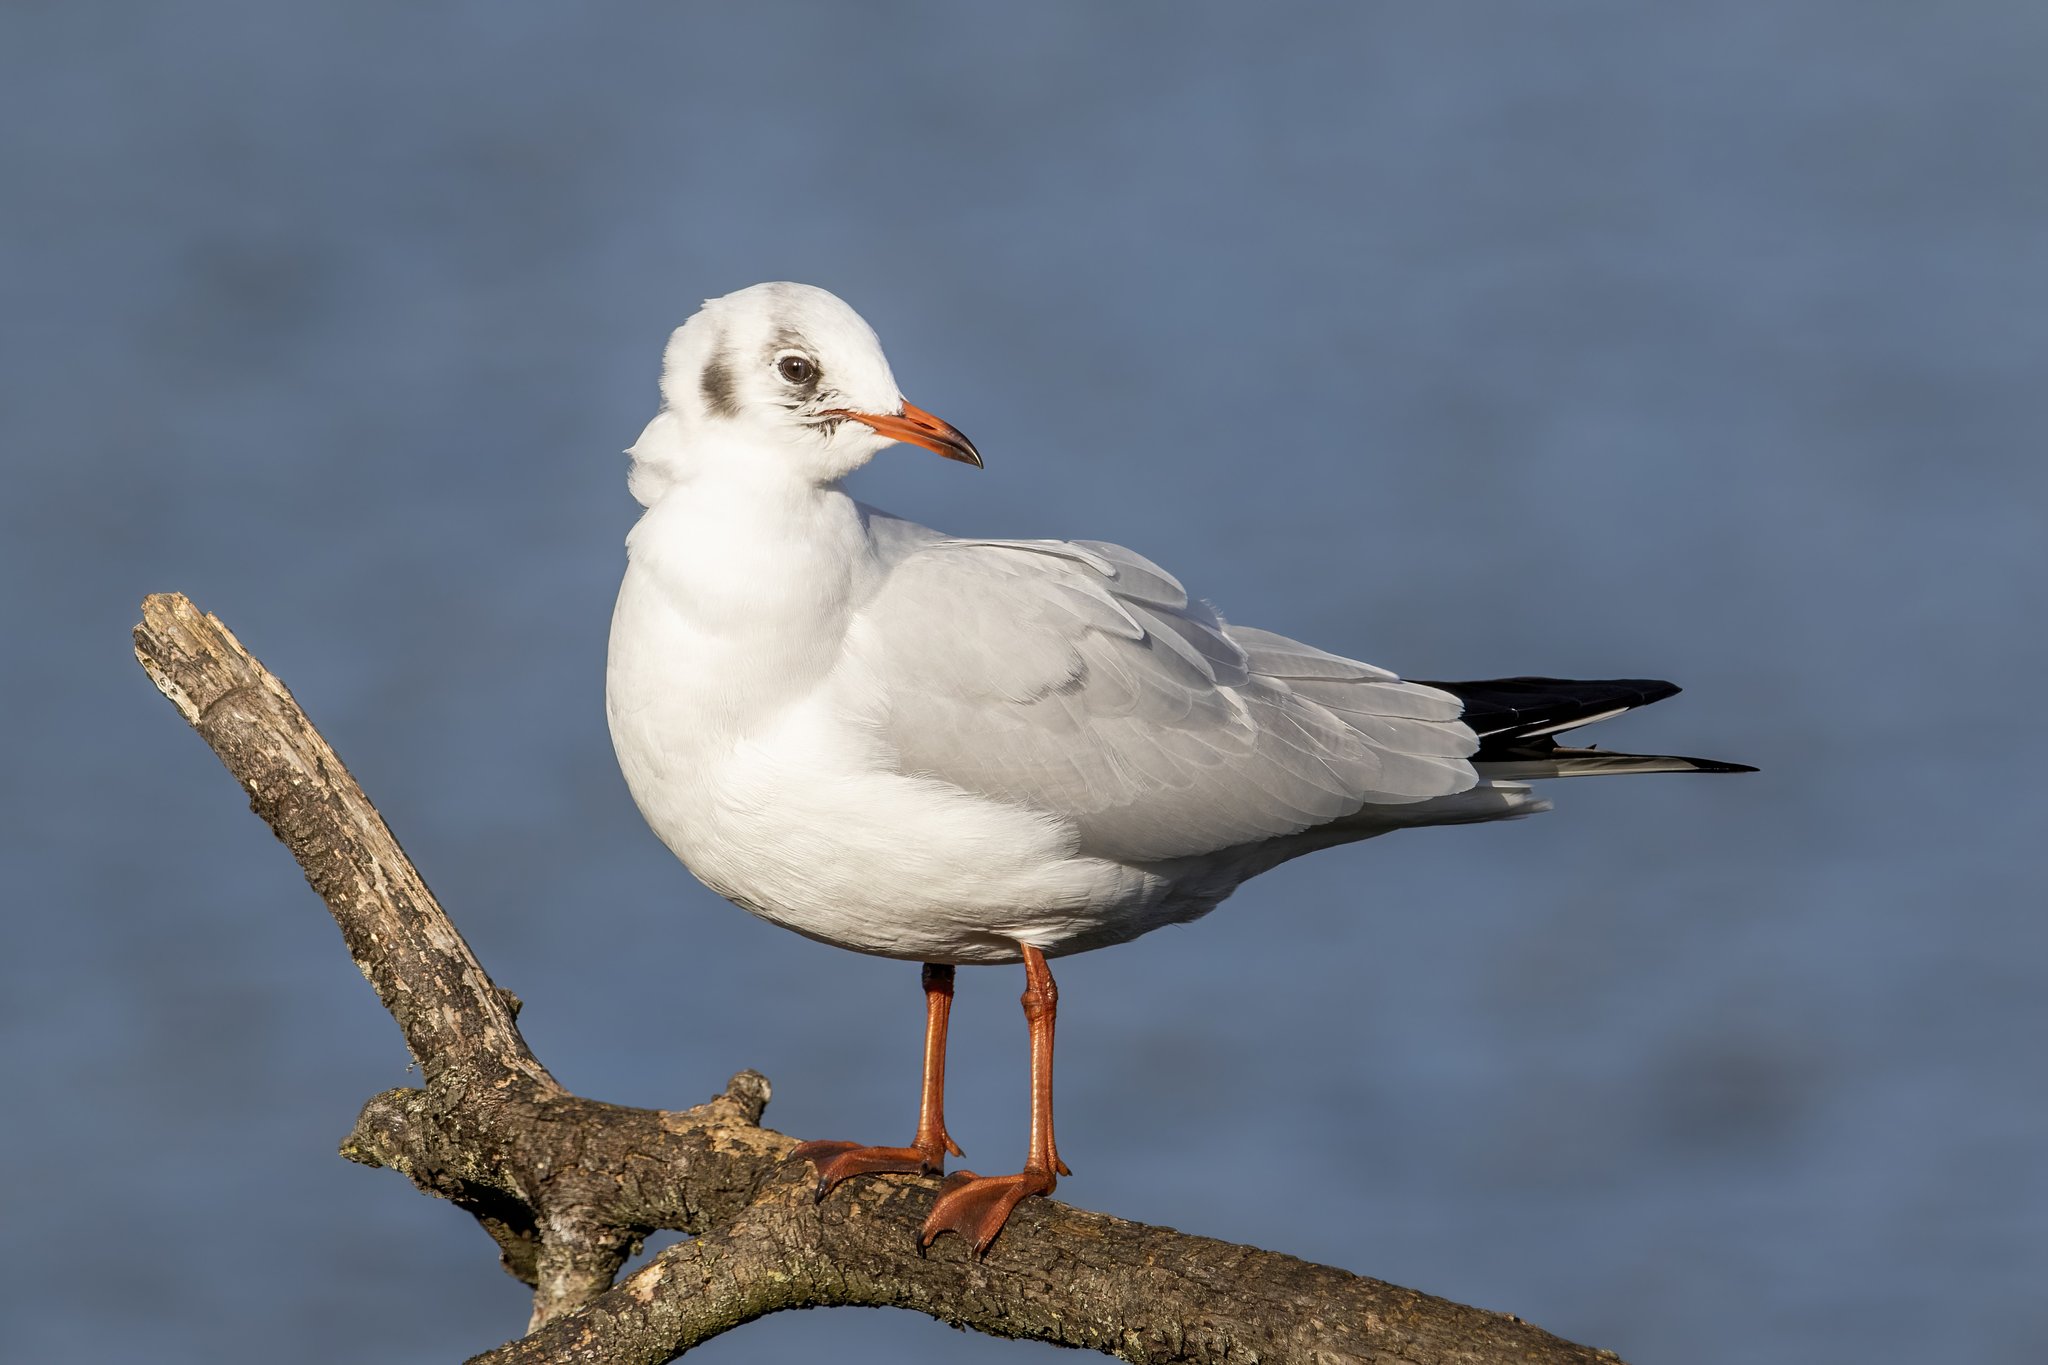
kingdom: Animalia
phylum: Chordata
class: Aves
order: Charadriiformes
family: Laridae
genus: Chroicocephalus
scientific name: Chroicocephalus ridibundus
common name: Black-headed gull
